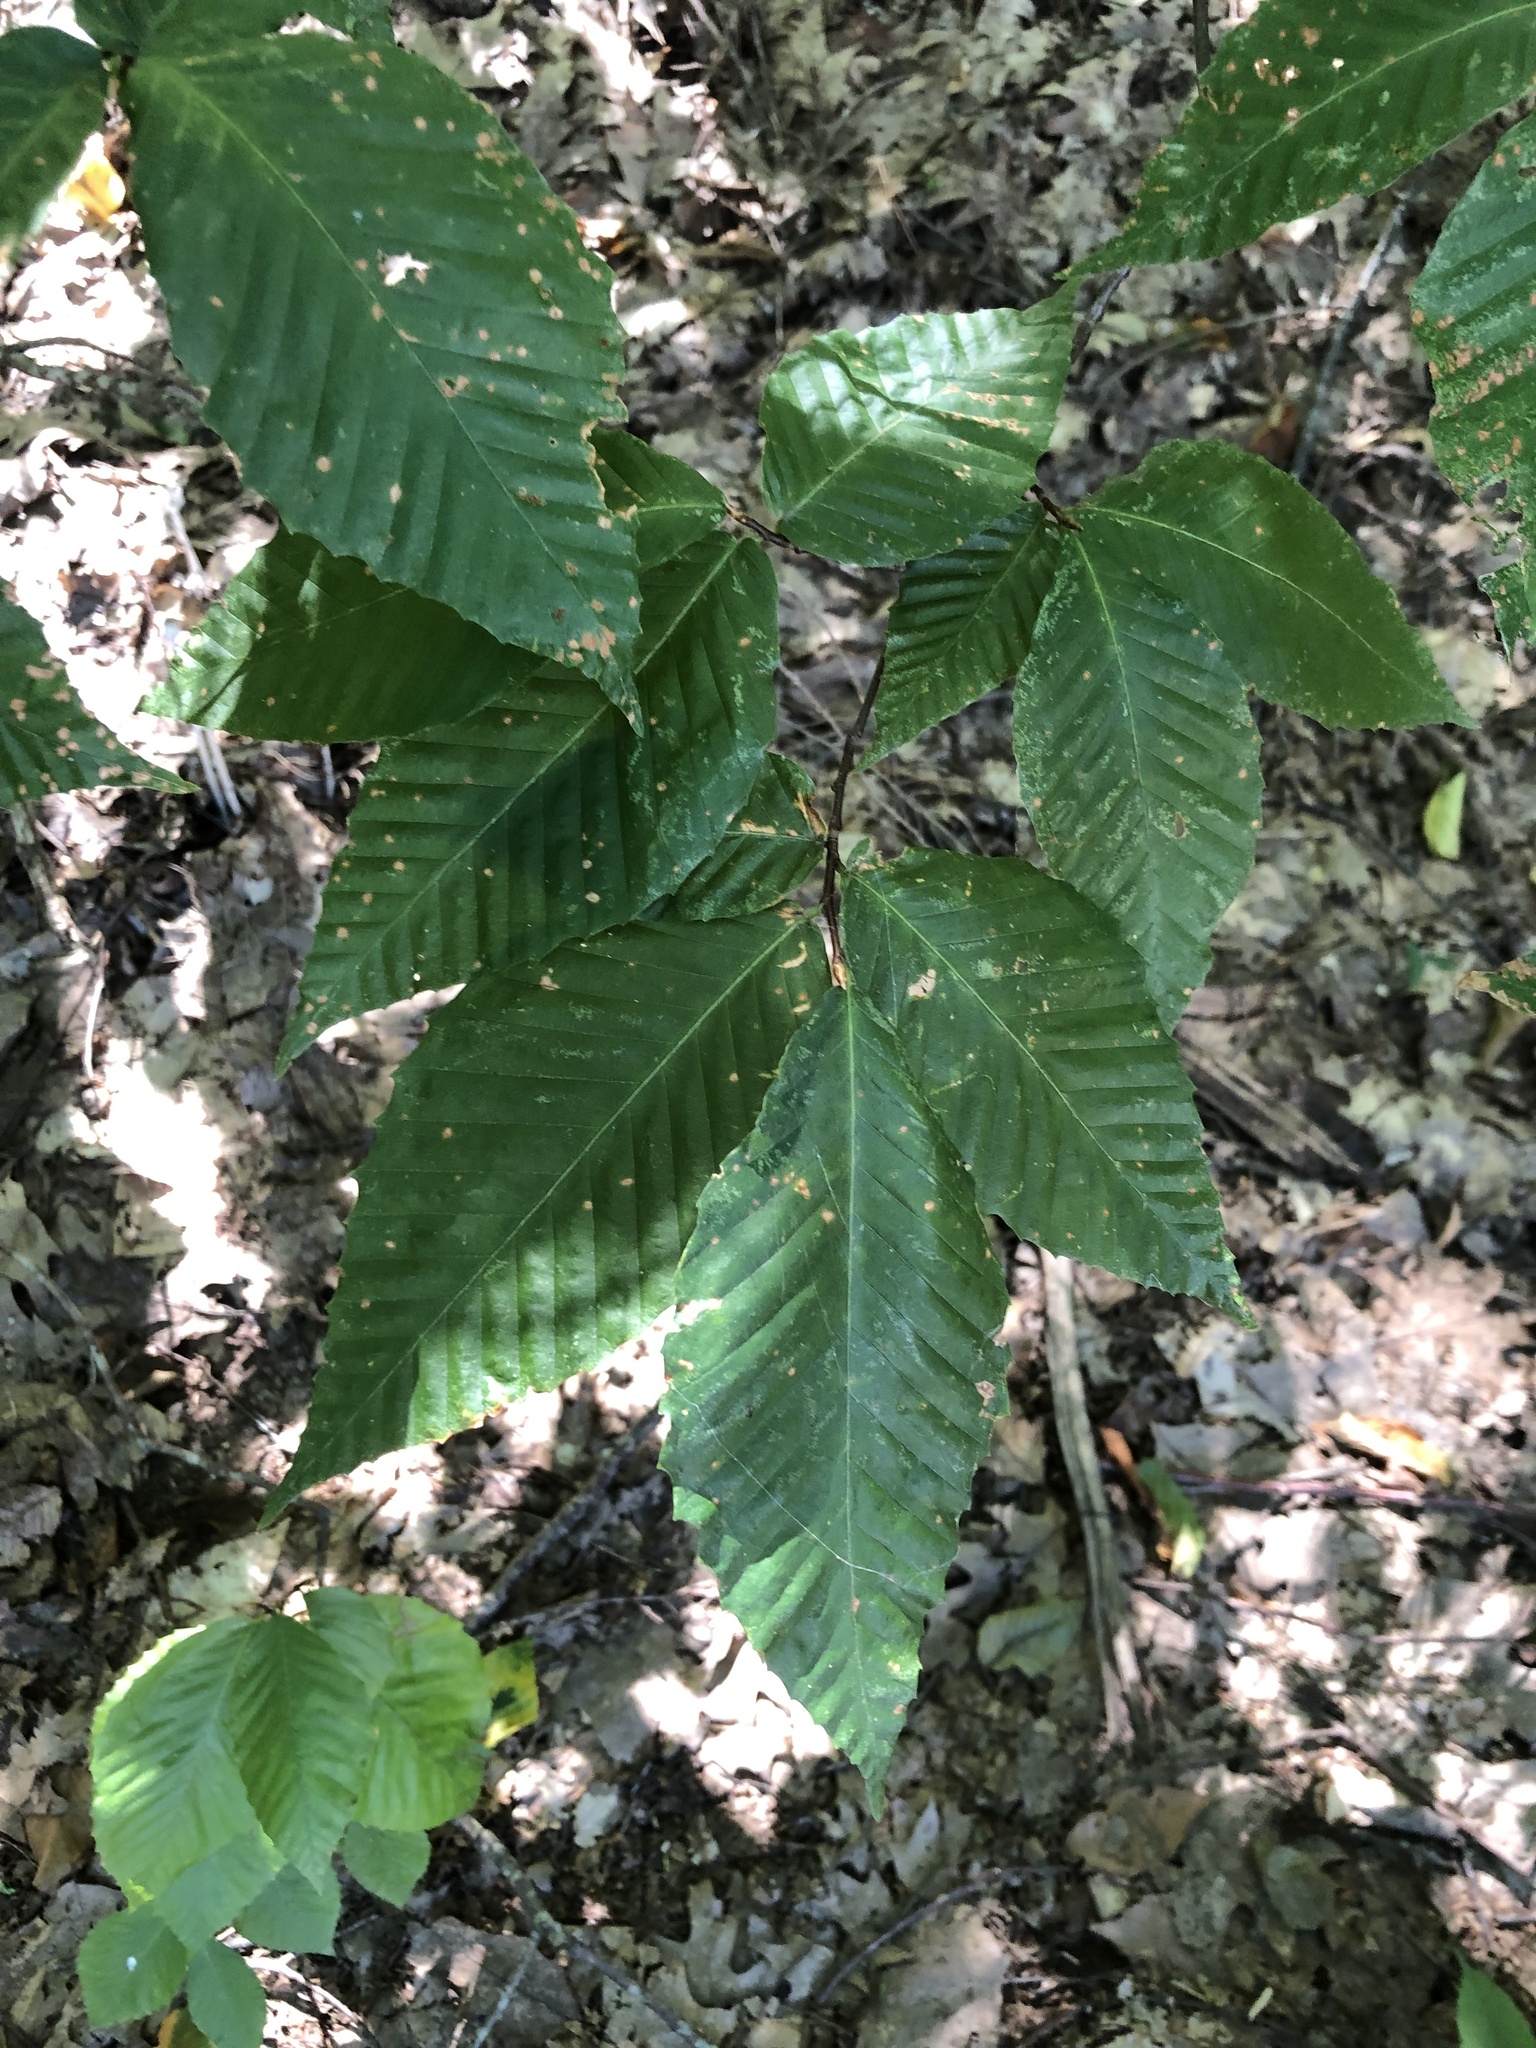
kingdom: Plantae
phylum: Tracheophyta
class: Magnoliopsida
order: Fagales
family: Fagaceae
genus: Fagus
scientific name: Fagus grandifolia
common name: American beech
